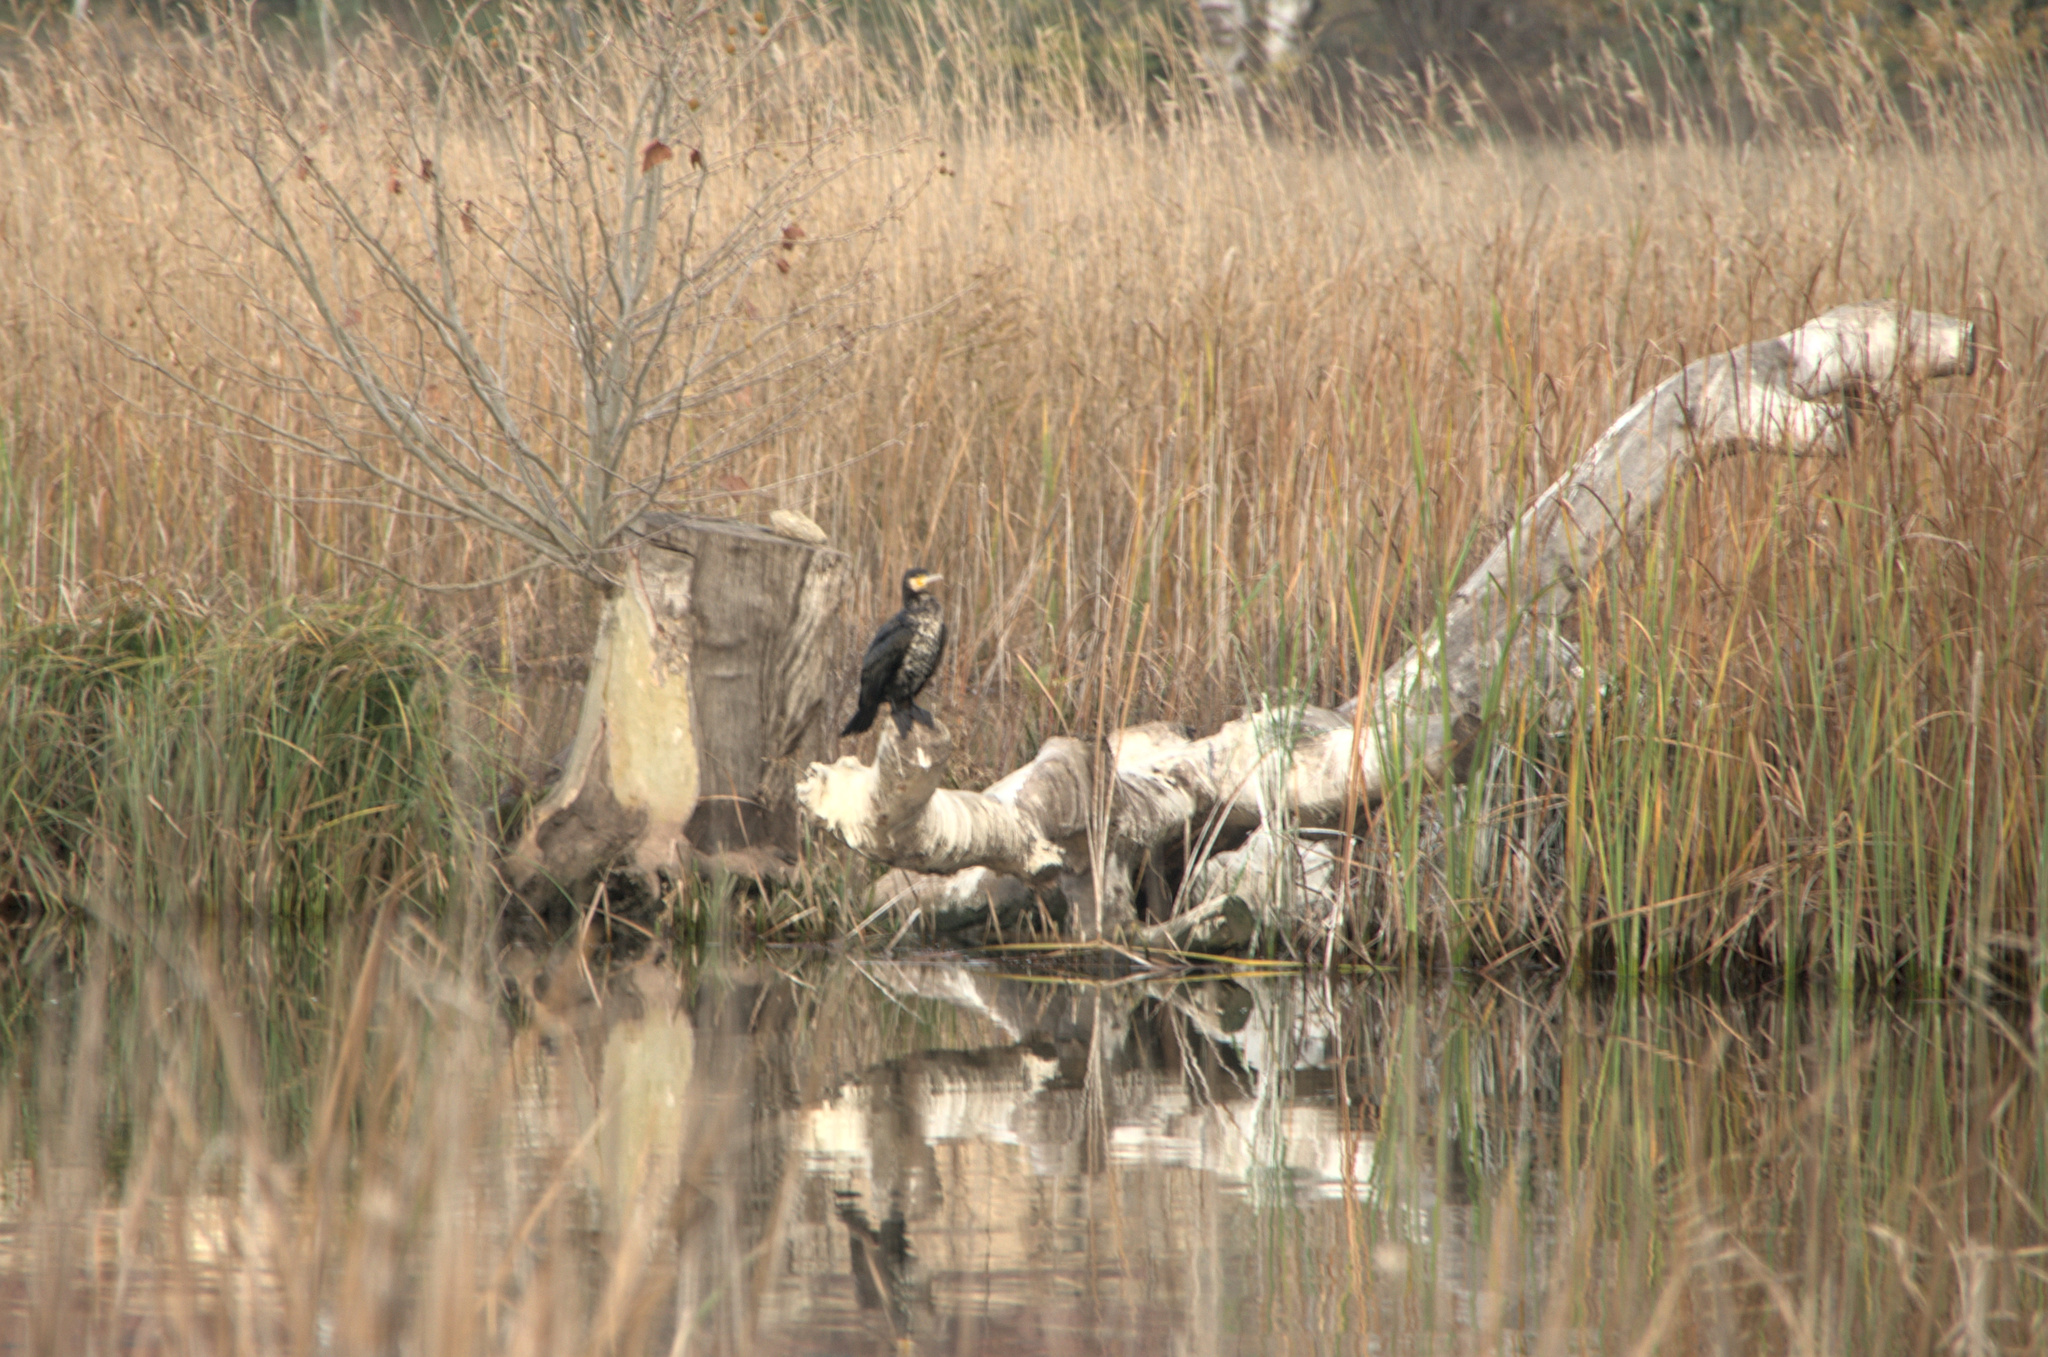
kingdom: Animalia
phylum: Chordata
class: Aves
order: Suliformes
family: Phalacrocoracidae
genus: Phalacrocorax
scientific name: Phalacrocorax carbo
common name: Great cormorant
